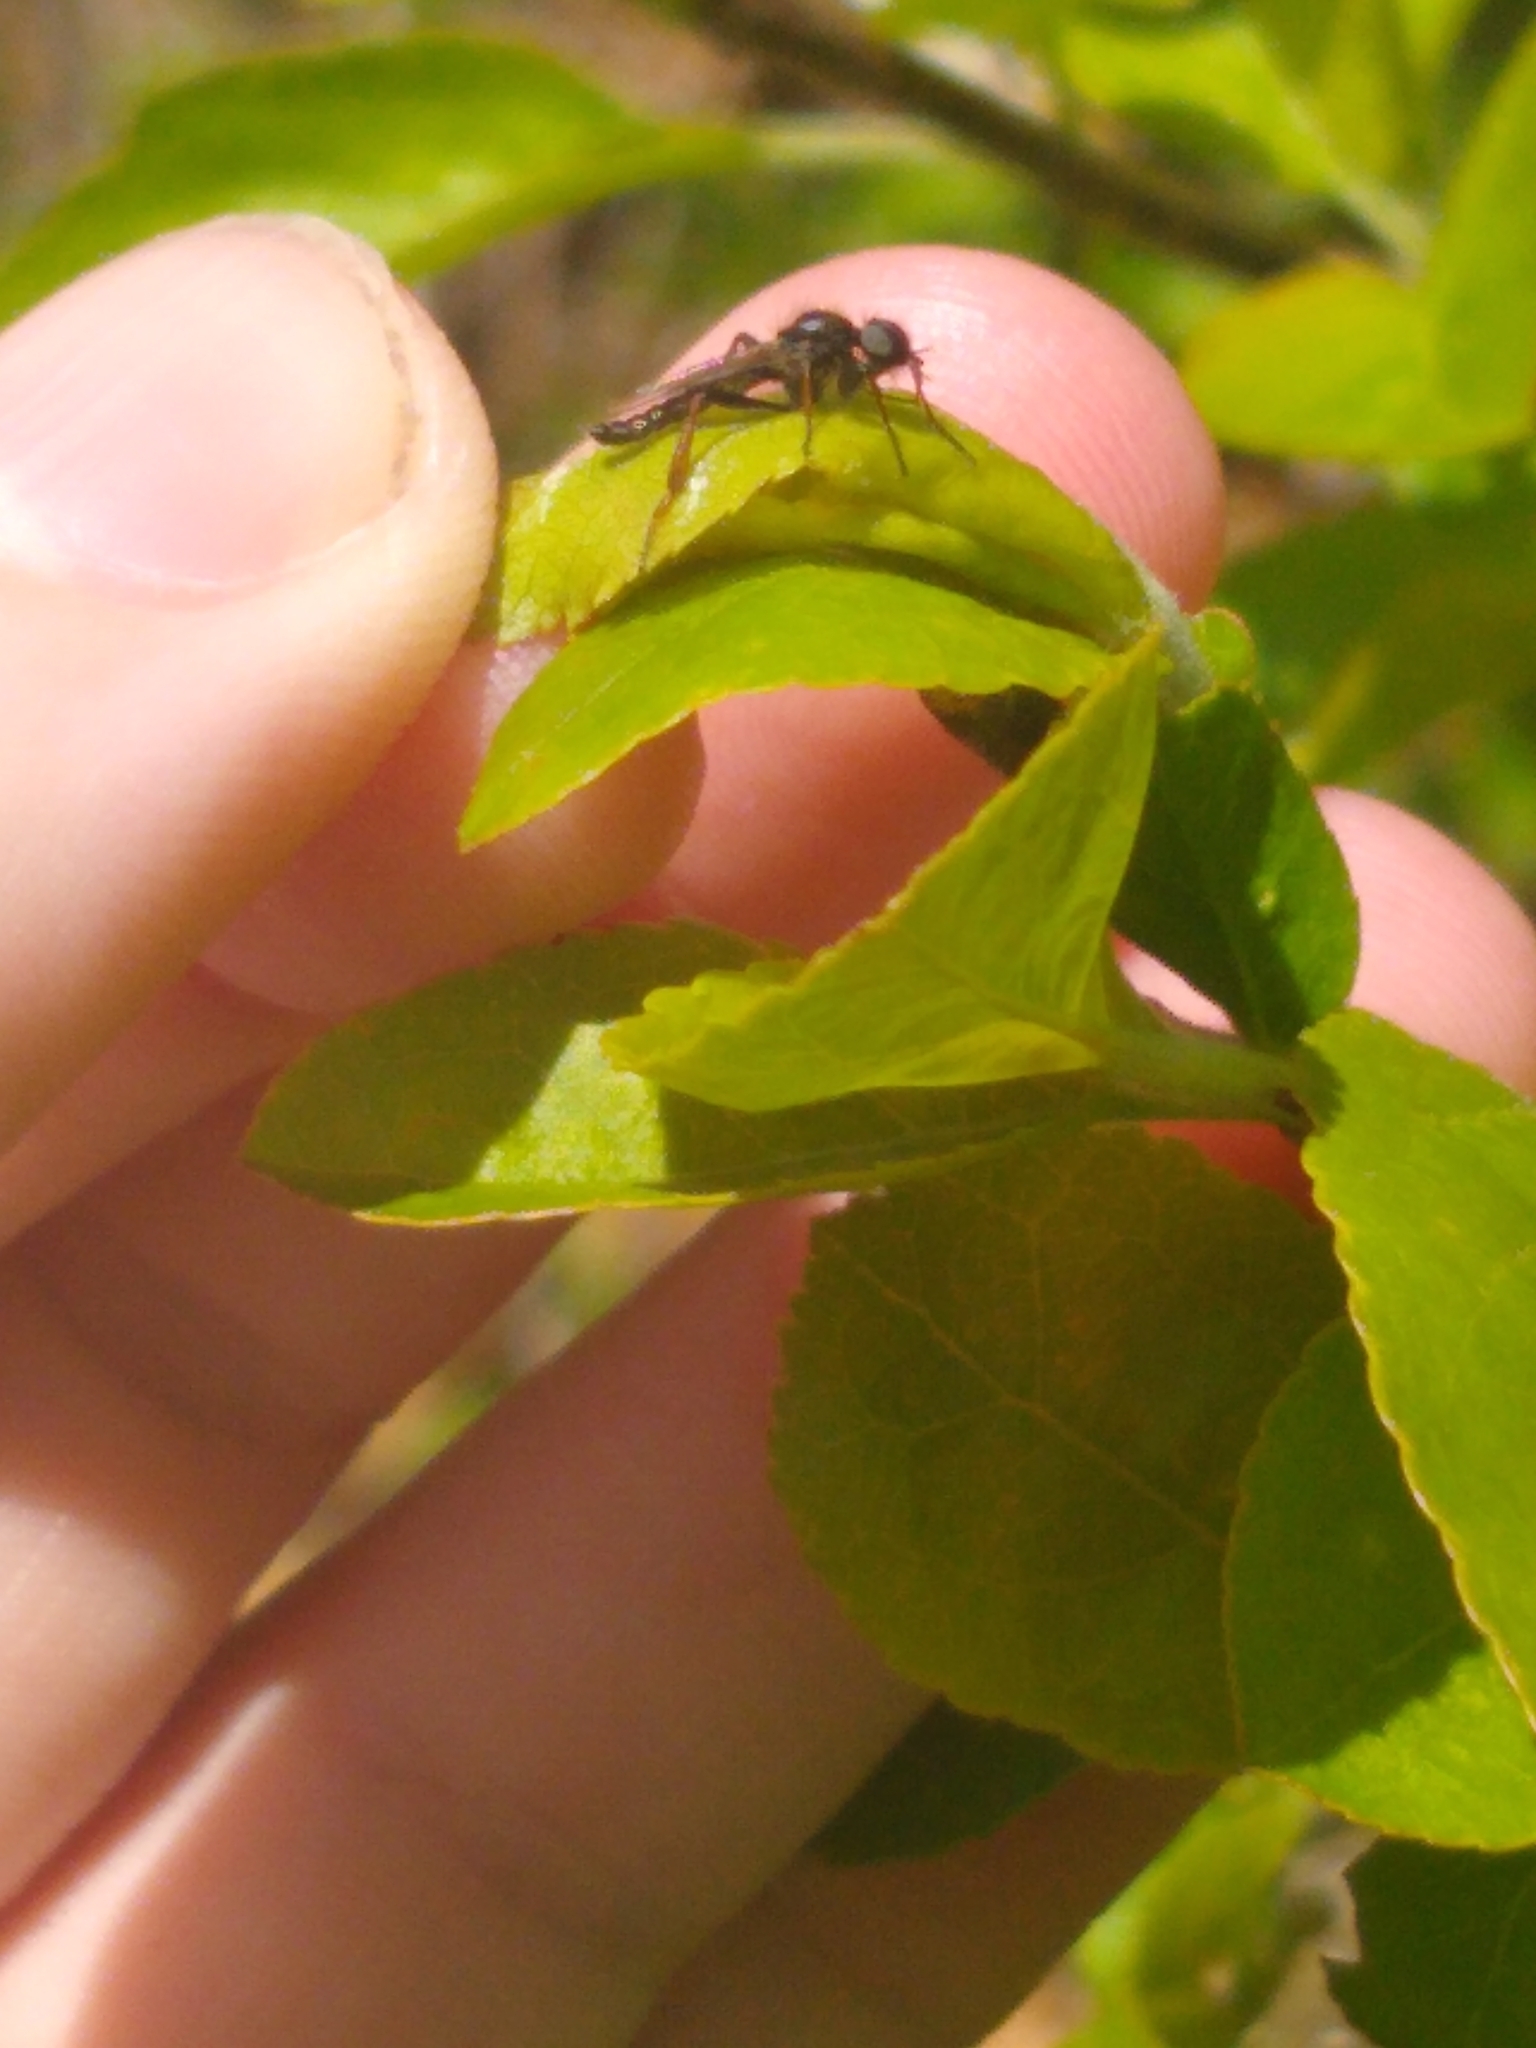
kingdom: Animalia
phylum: Arthropoda
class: Insecta
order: Diptera
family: Bibionidae
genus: Bibio
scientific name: Bibio
